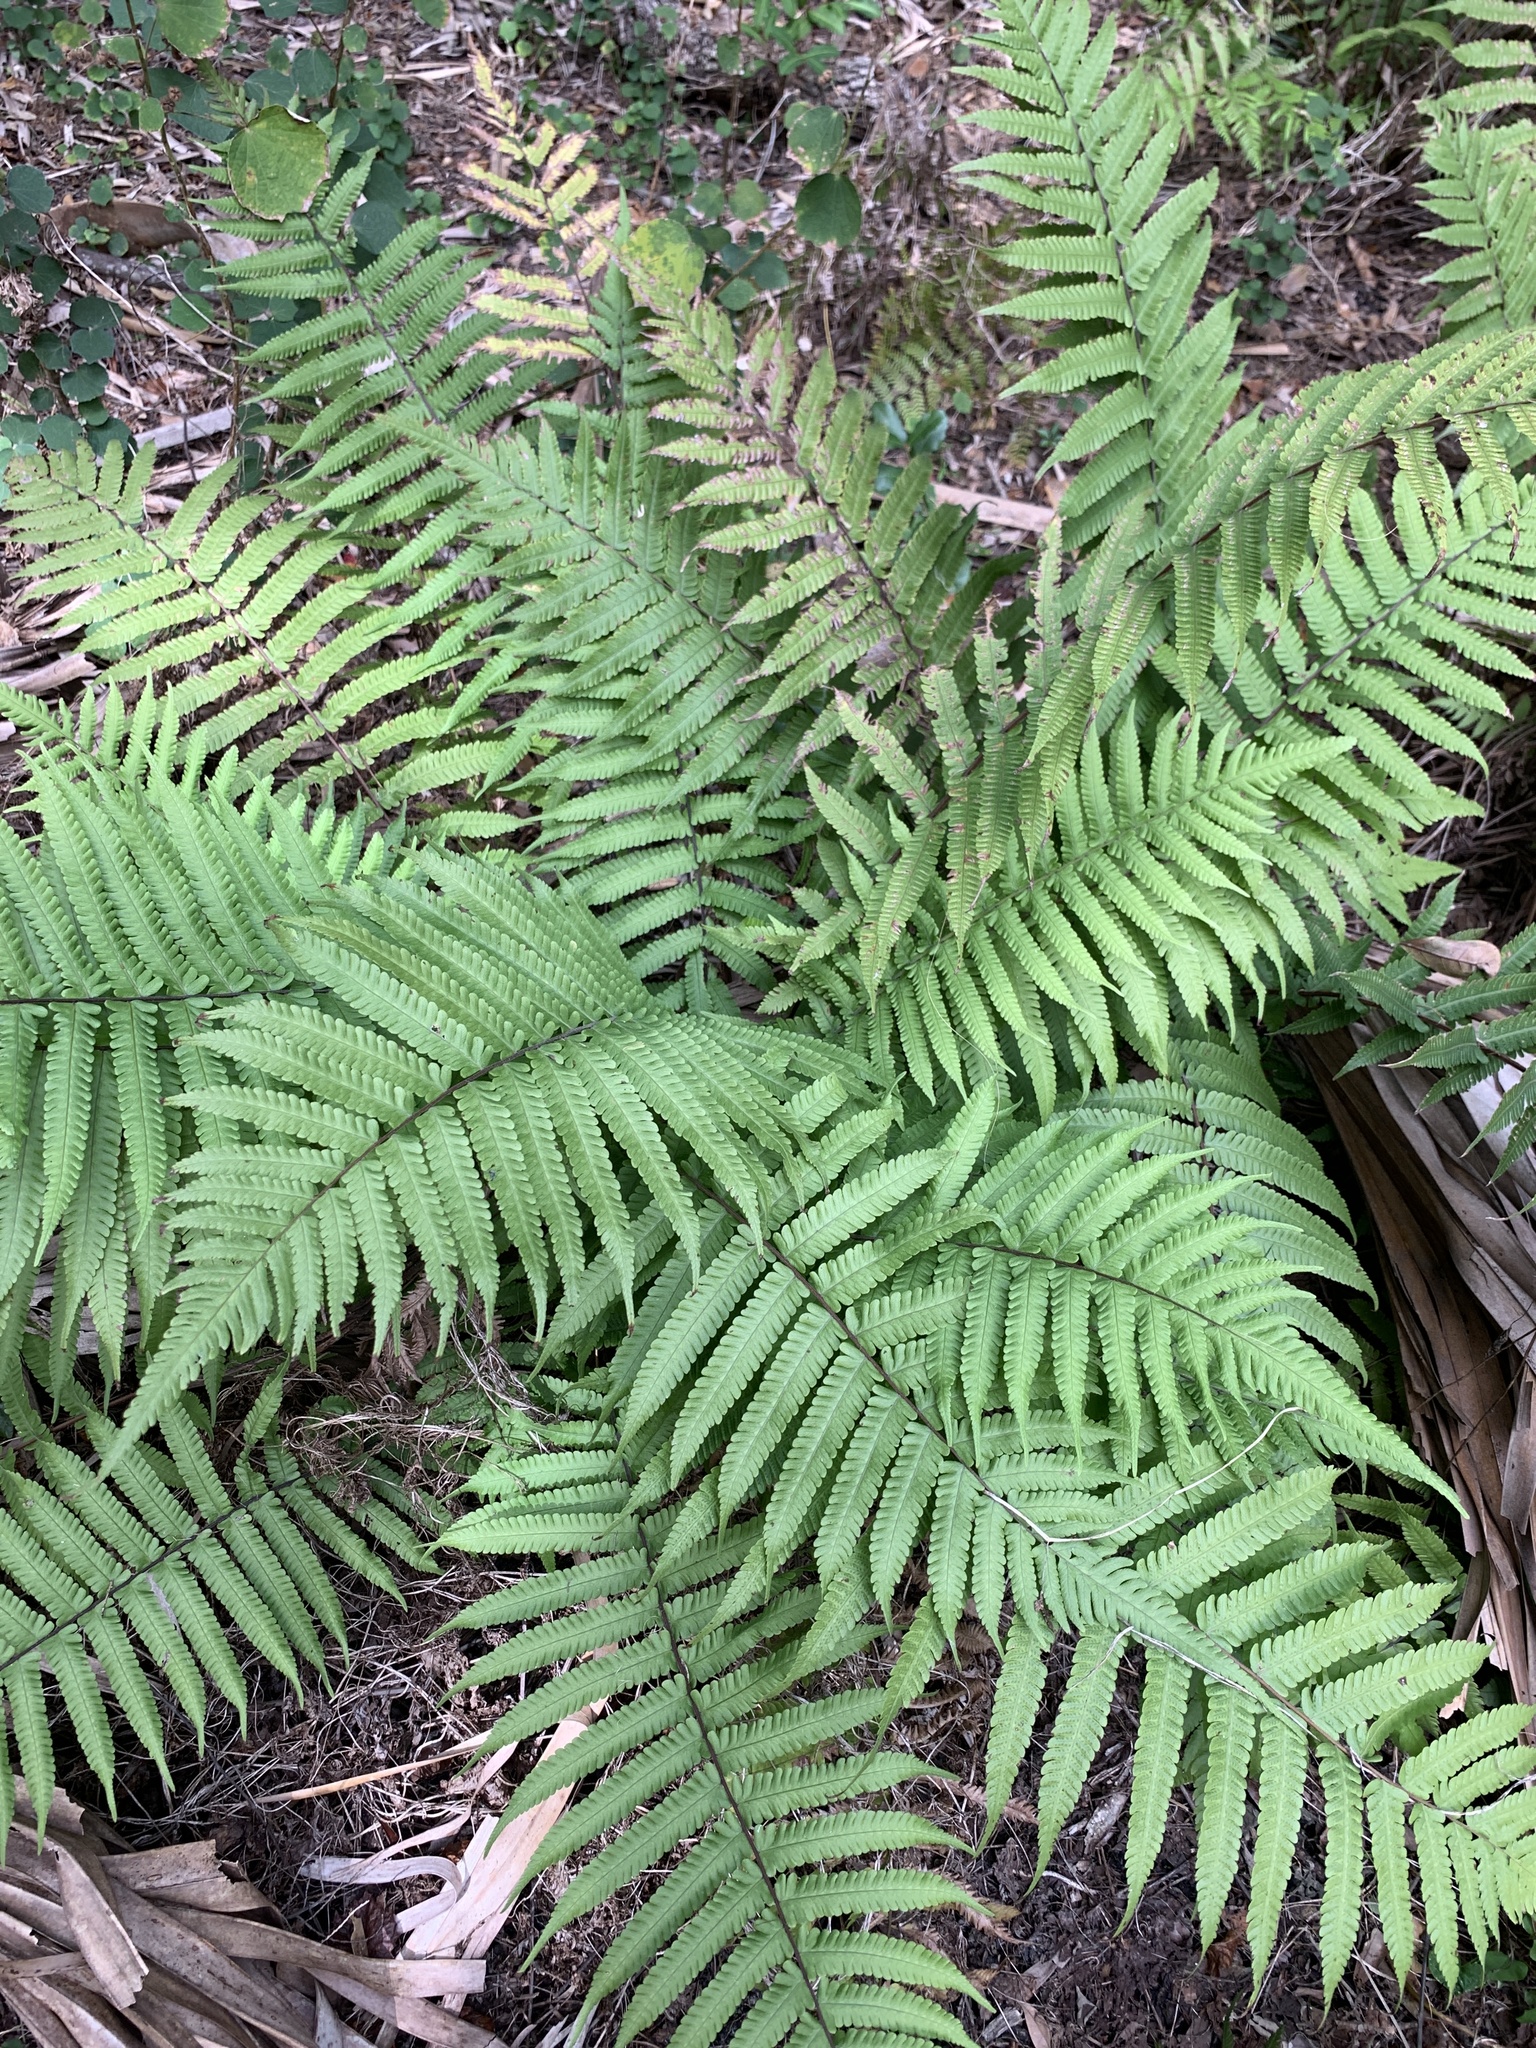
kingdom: Plantae
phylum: Tracheophyta
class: Polypodiopsida
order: Polypodiales
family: Thelypteridaceae
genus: Christella
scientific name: Christella dentata
